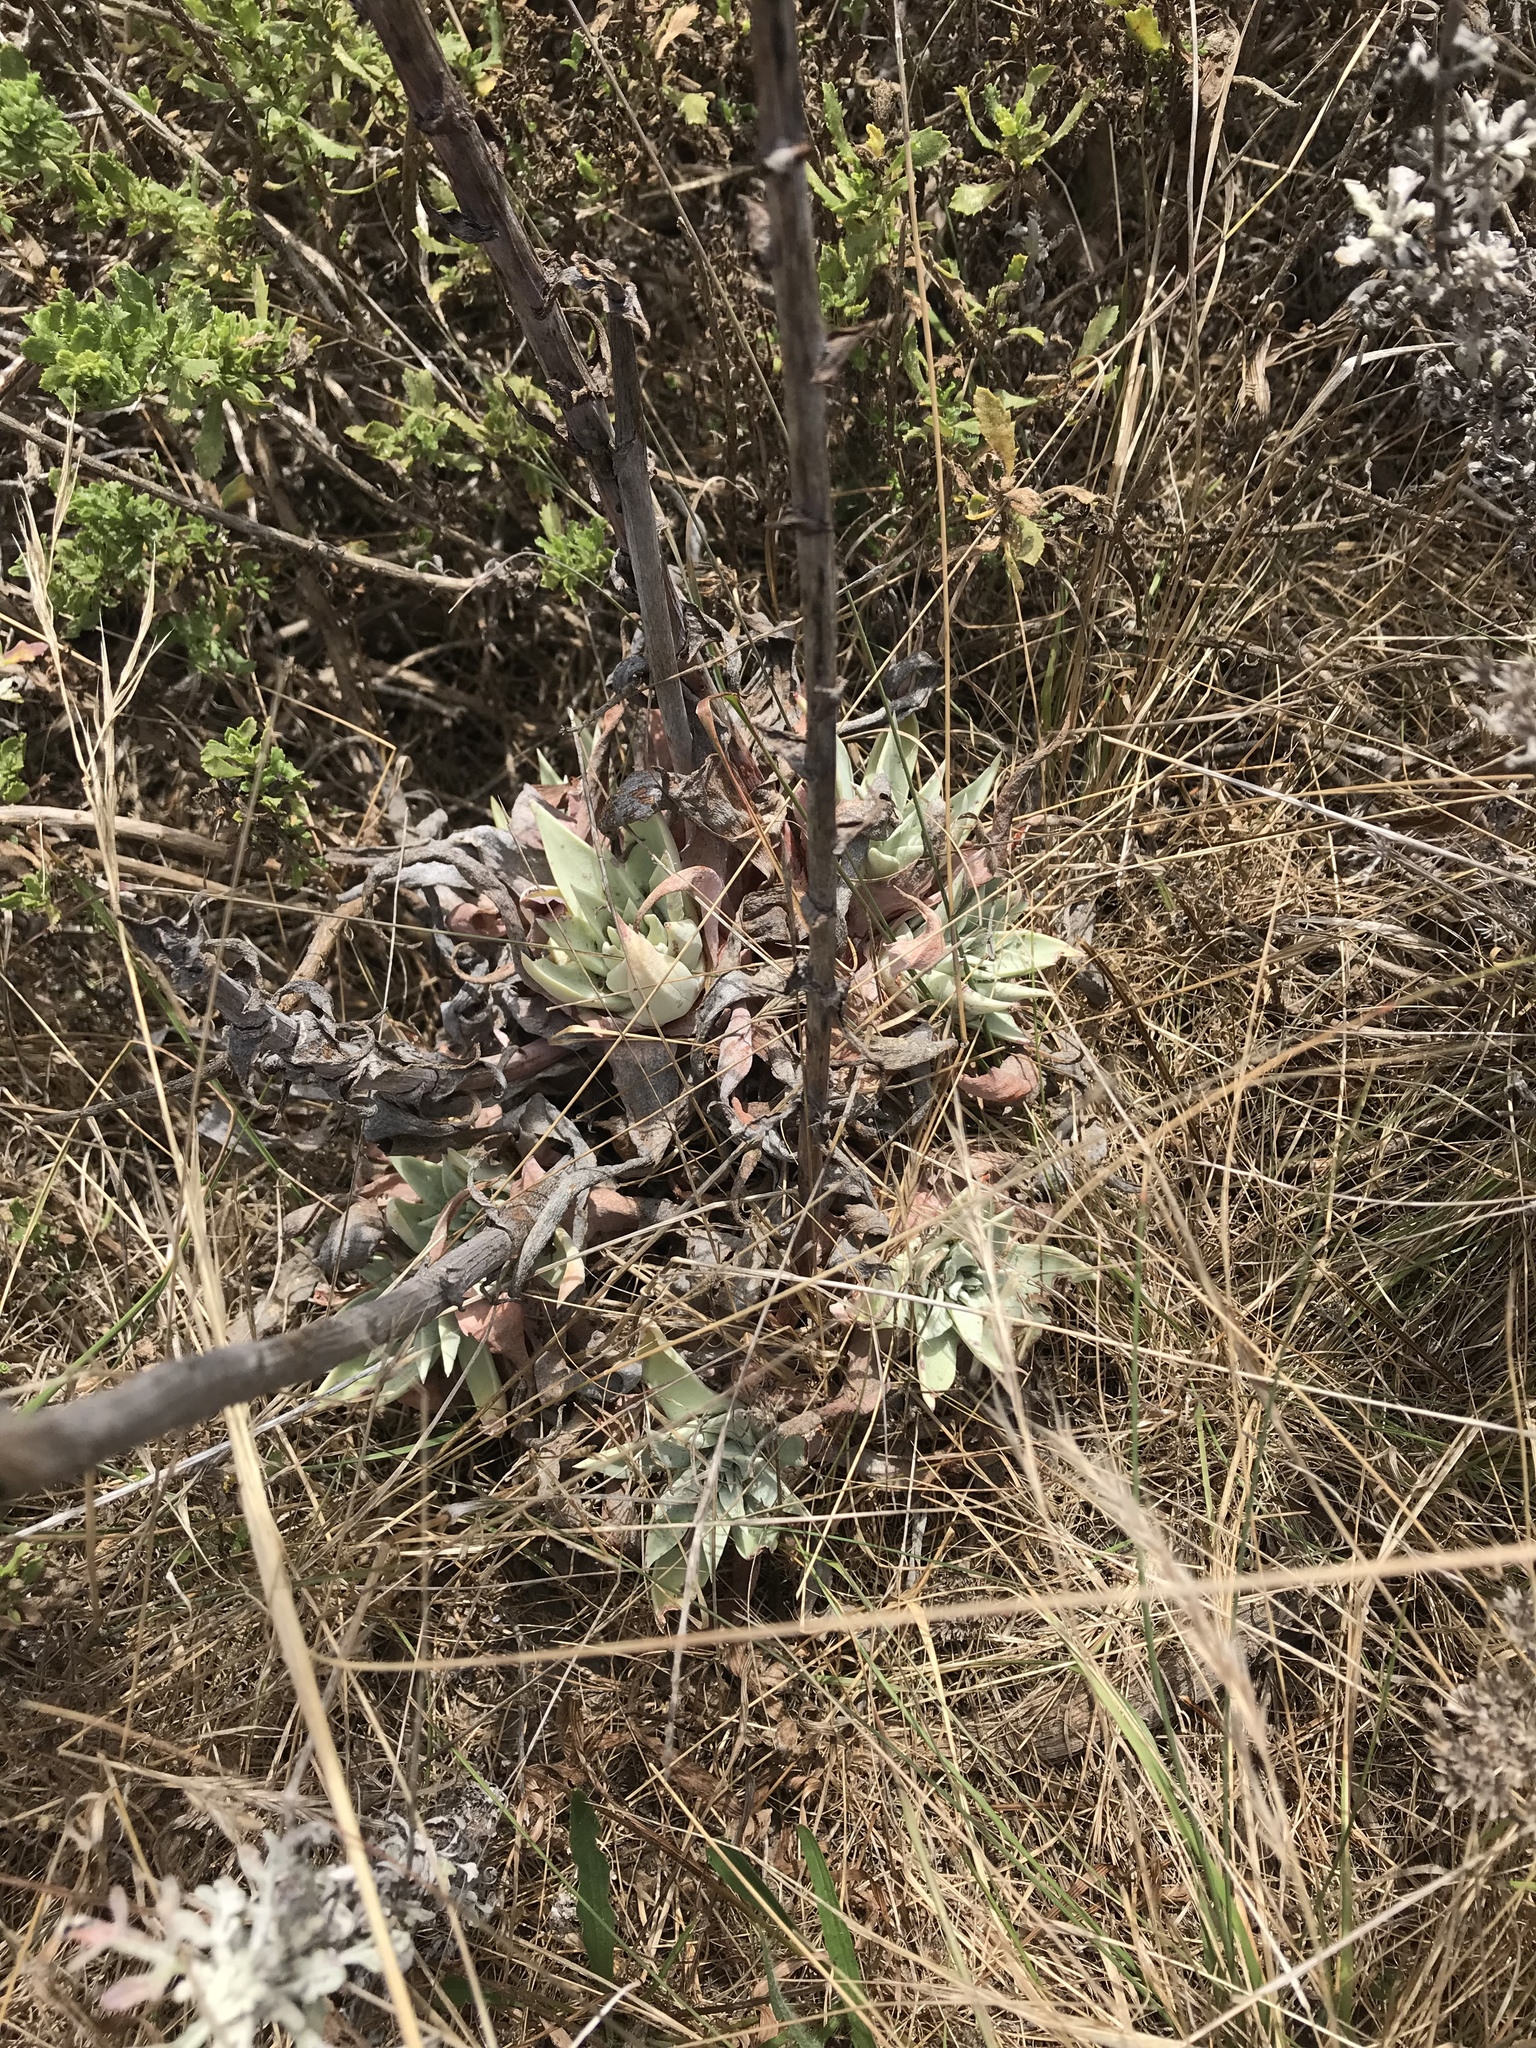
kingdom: Plantae
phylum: Tracheophyta
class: Magnoliopsida
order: Saxifragales
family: Crassulaceae
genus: Dudleya
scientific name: Dudleya caespitosa
